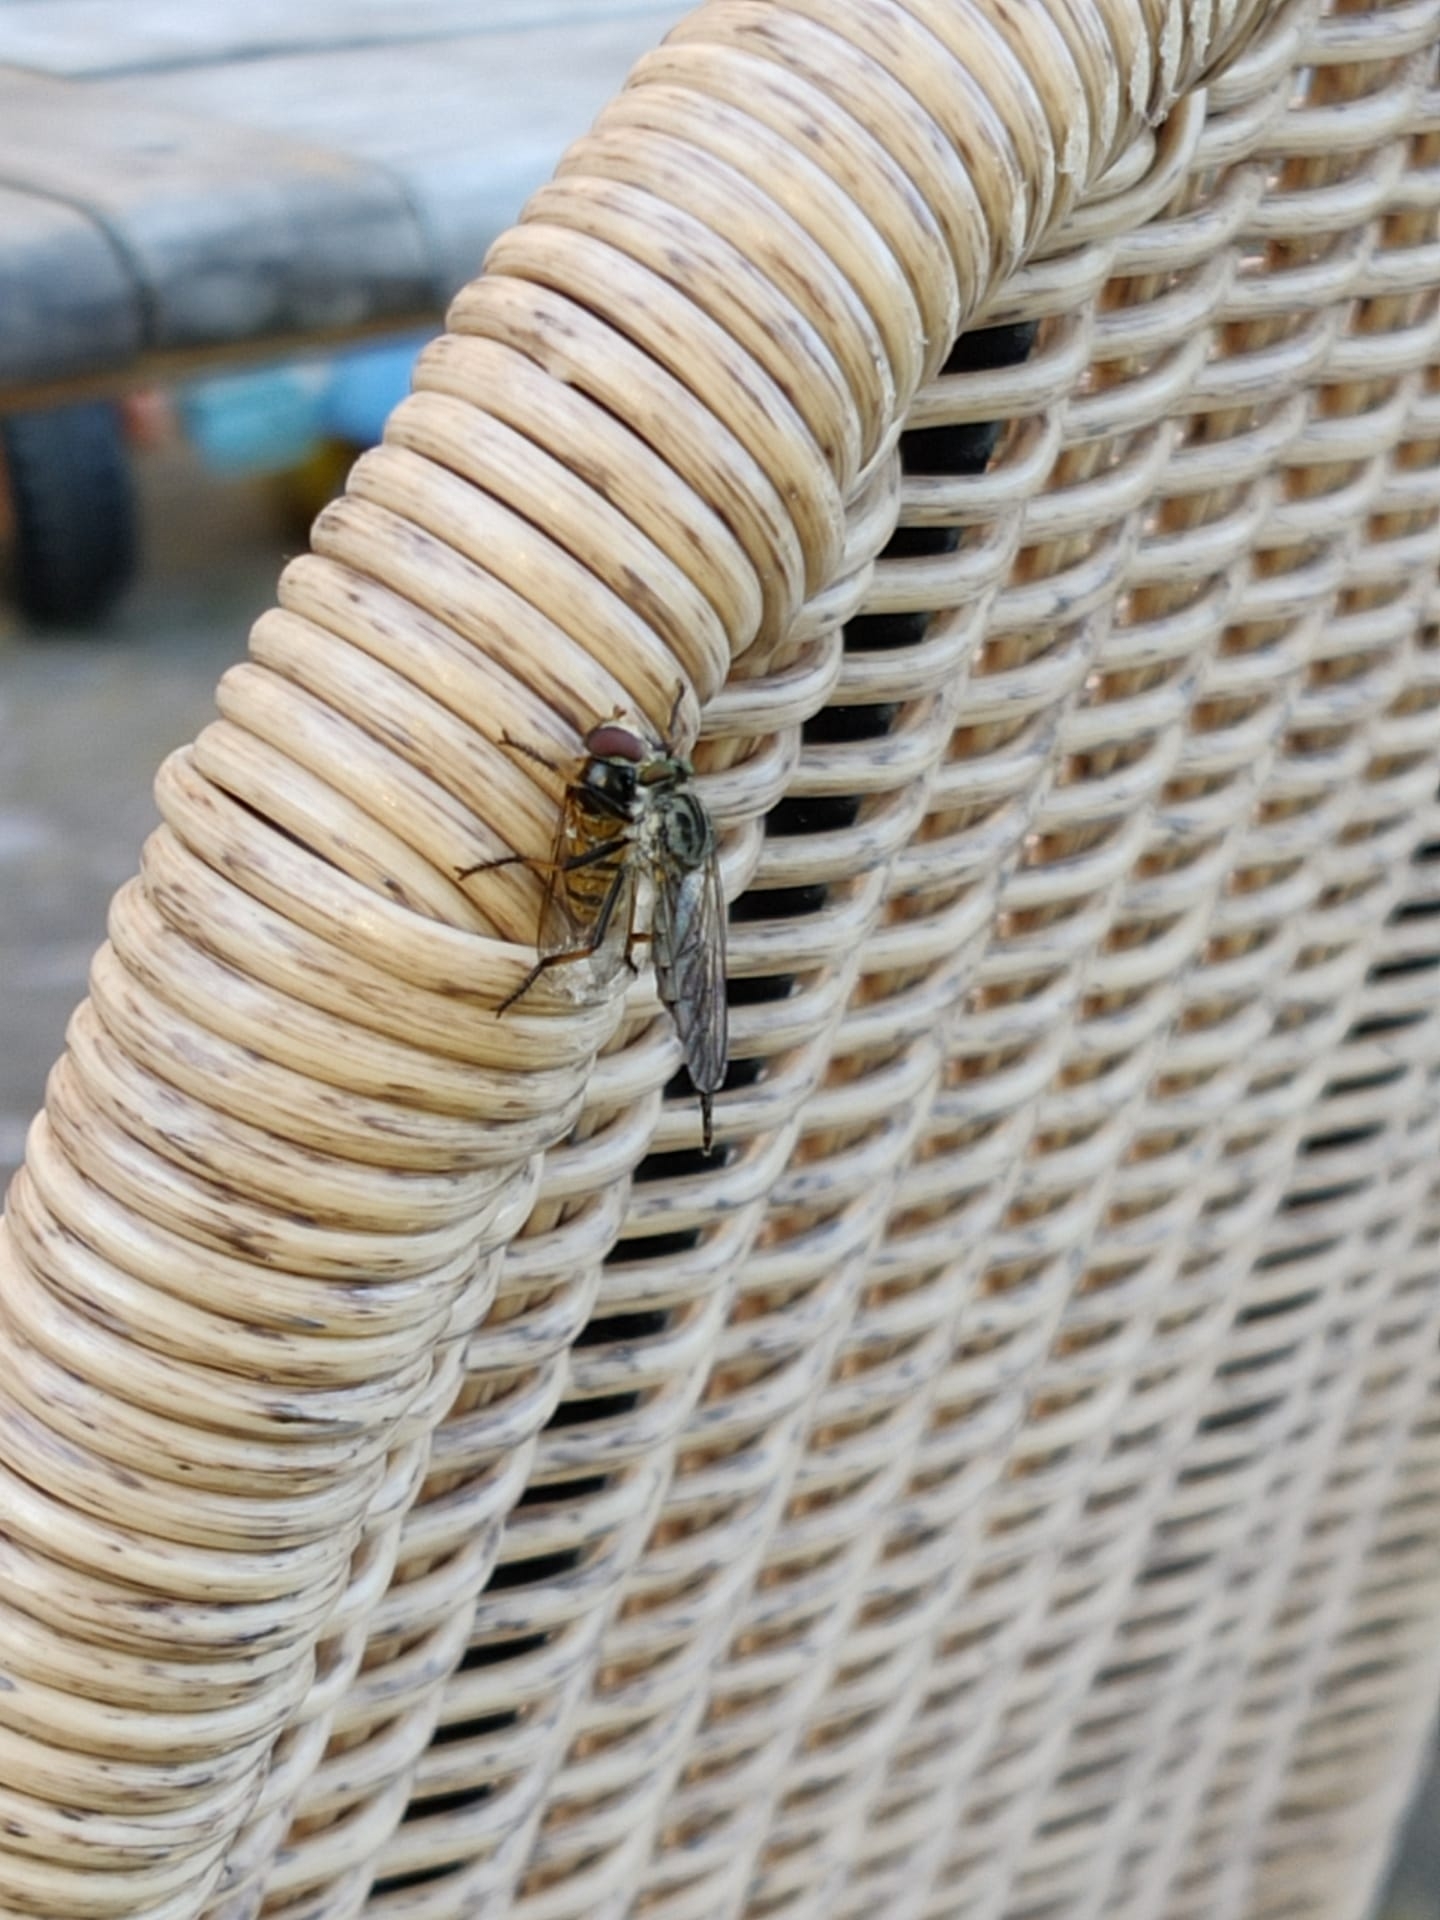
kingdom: Animalia
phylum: Arthropoda
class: Insecta
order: Diptera
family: Asilidae
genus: Neoitamus
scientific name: Neoitamus cyanurus
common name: Common awl robberfly
